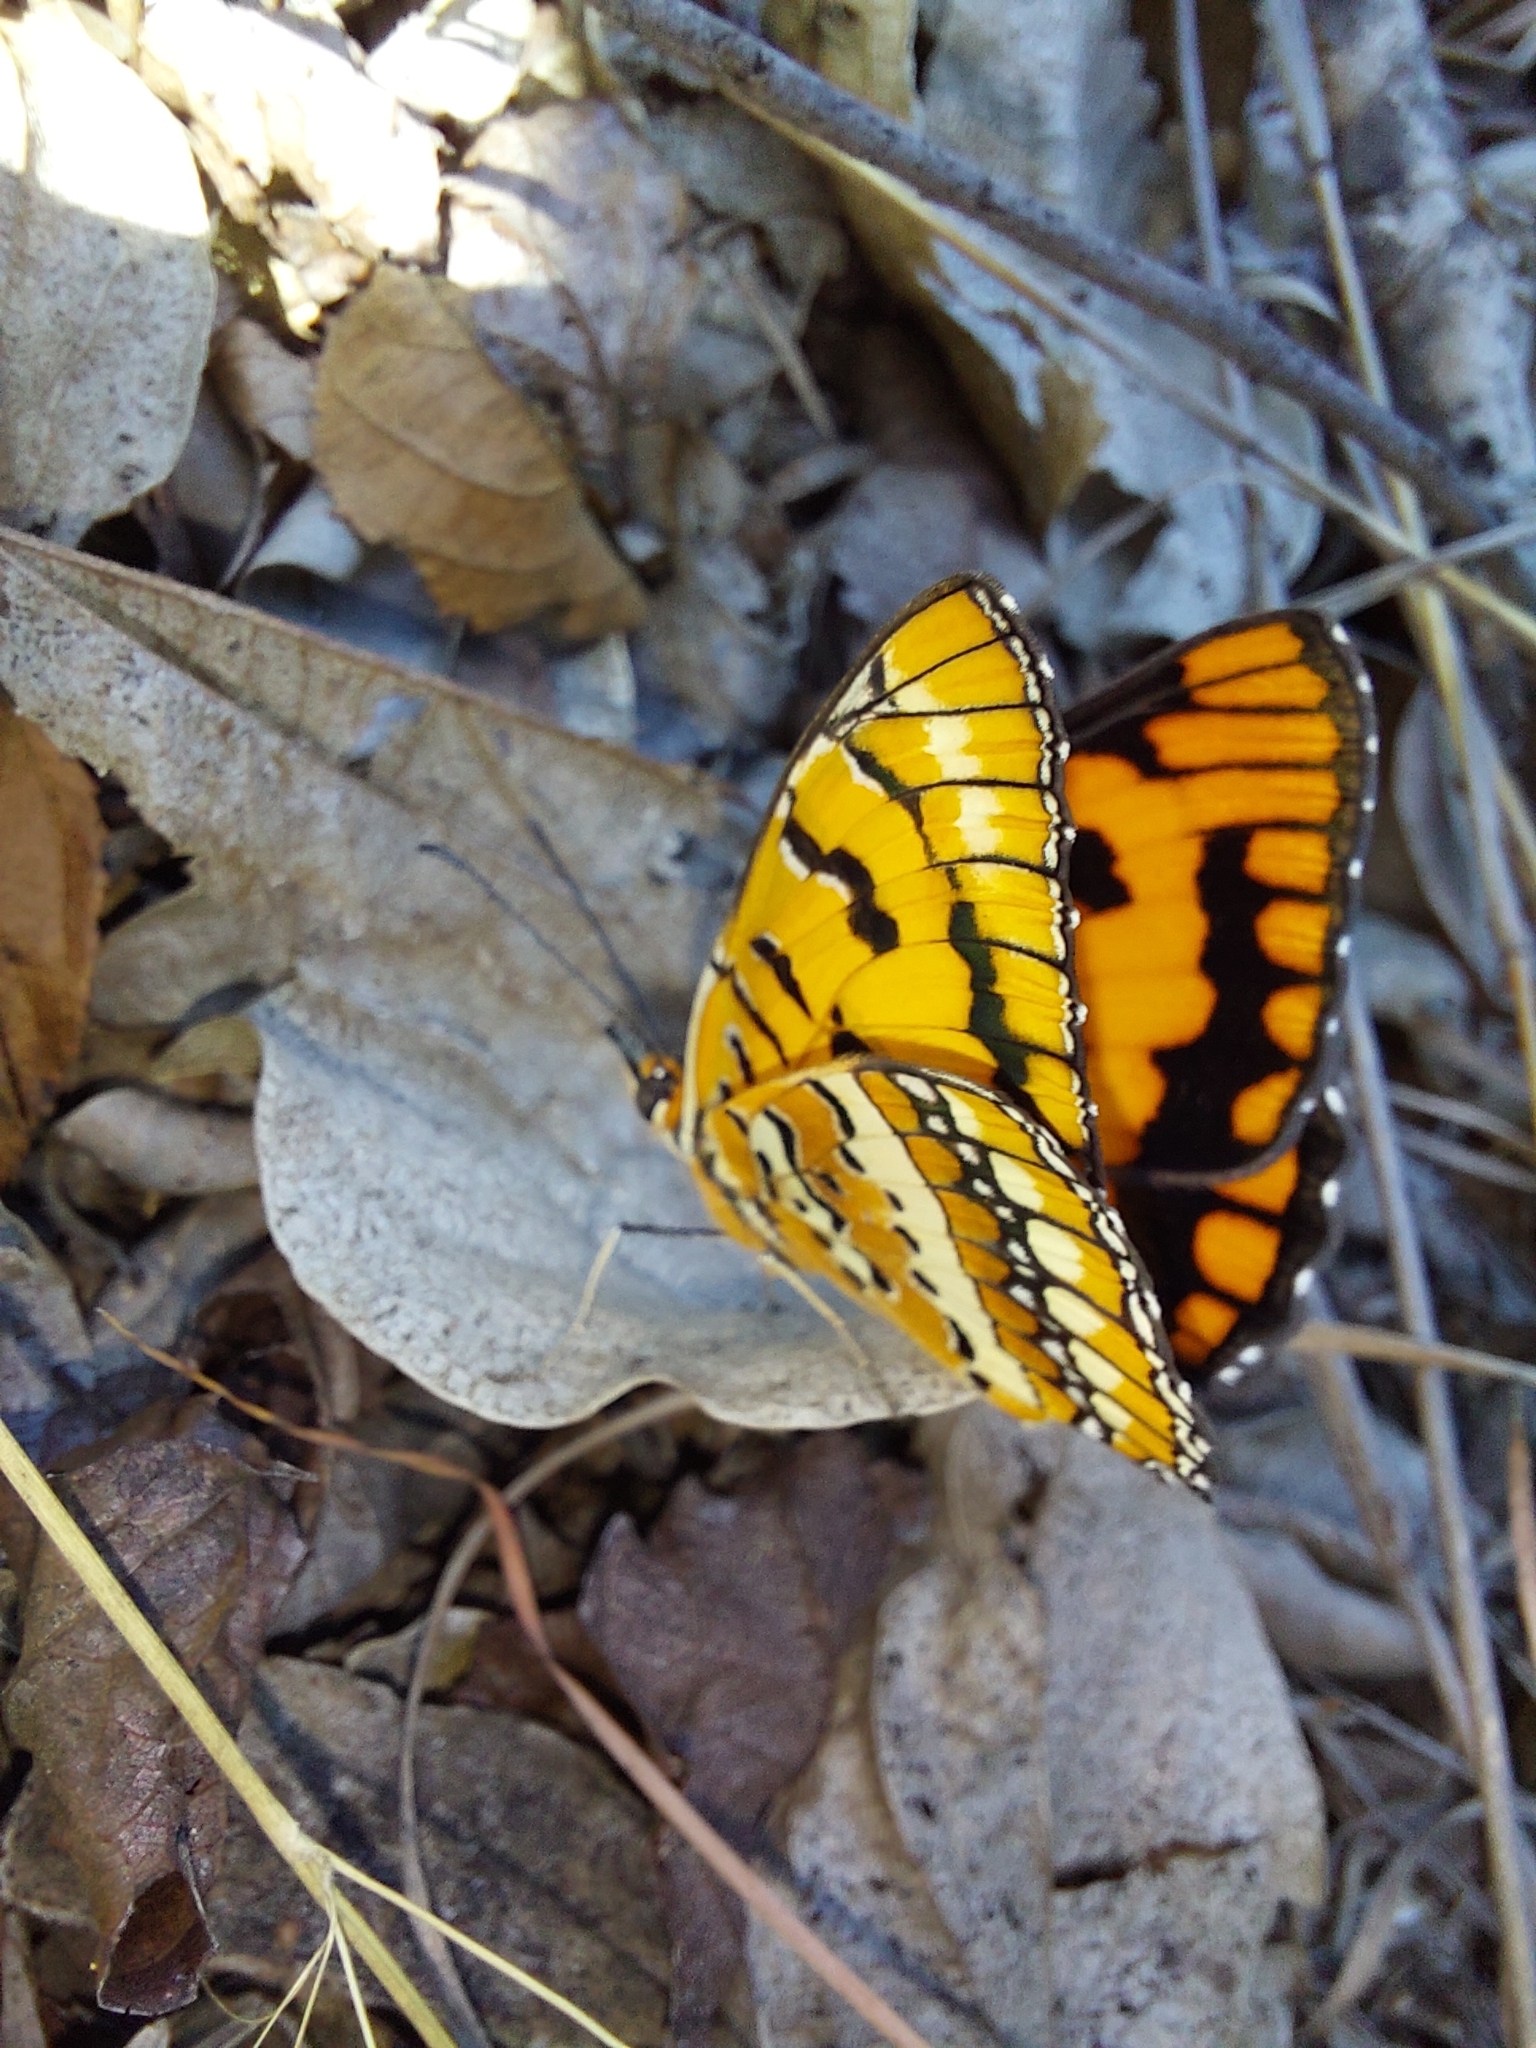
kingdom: Animalia
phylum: Arthropoda
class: Insecta
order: Lepidoptera
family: Nymphalidae
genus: Byblia
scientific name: Byblia ilithyia
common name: Spotted joker
